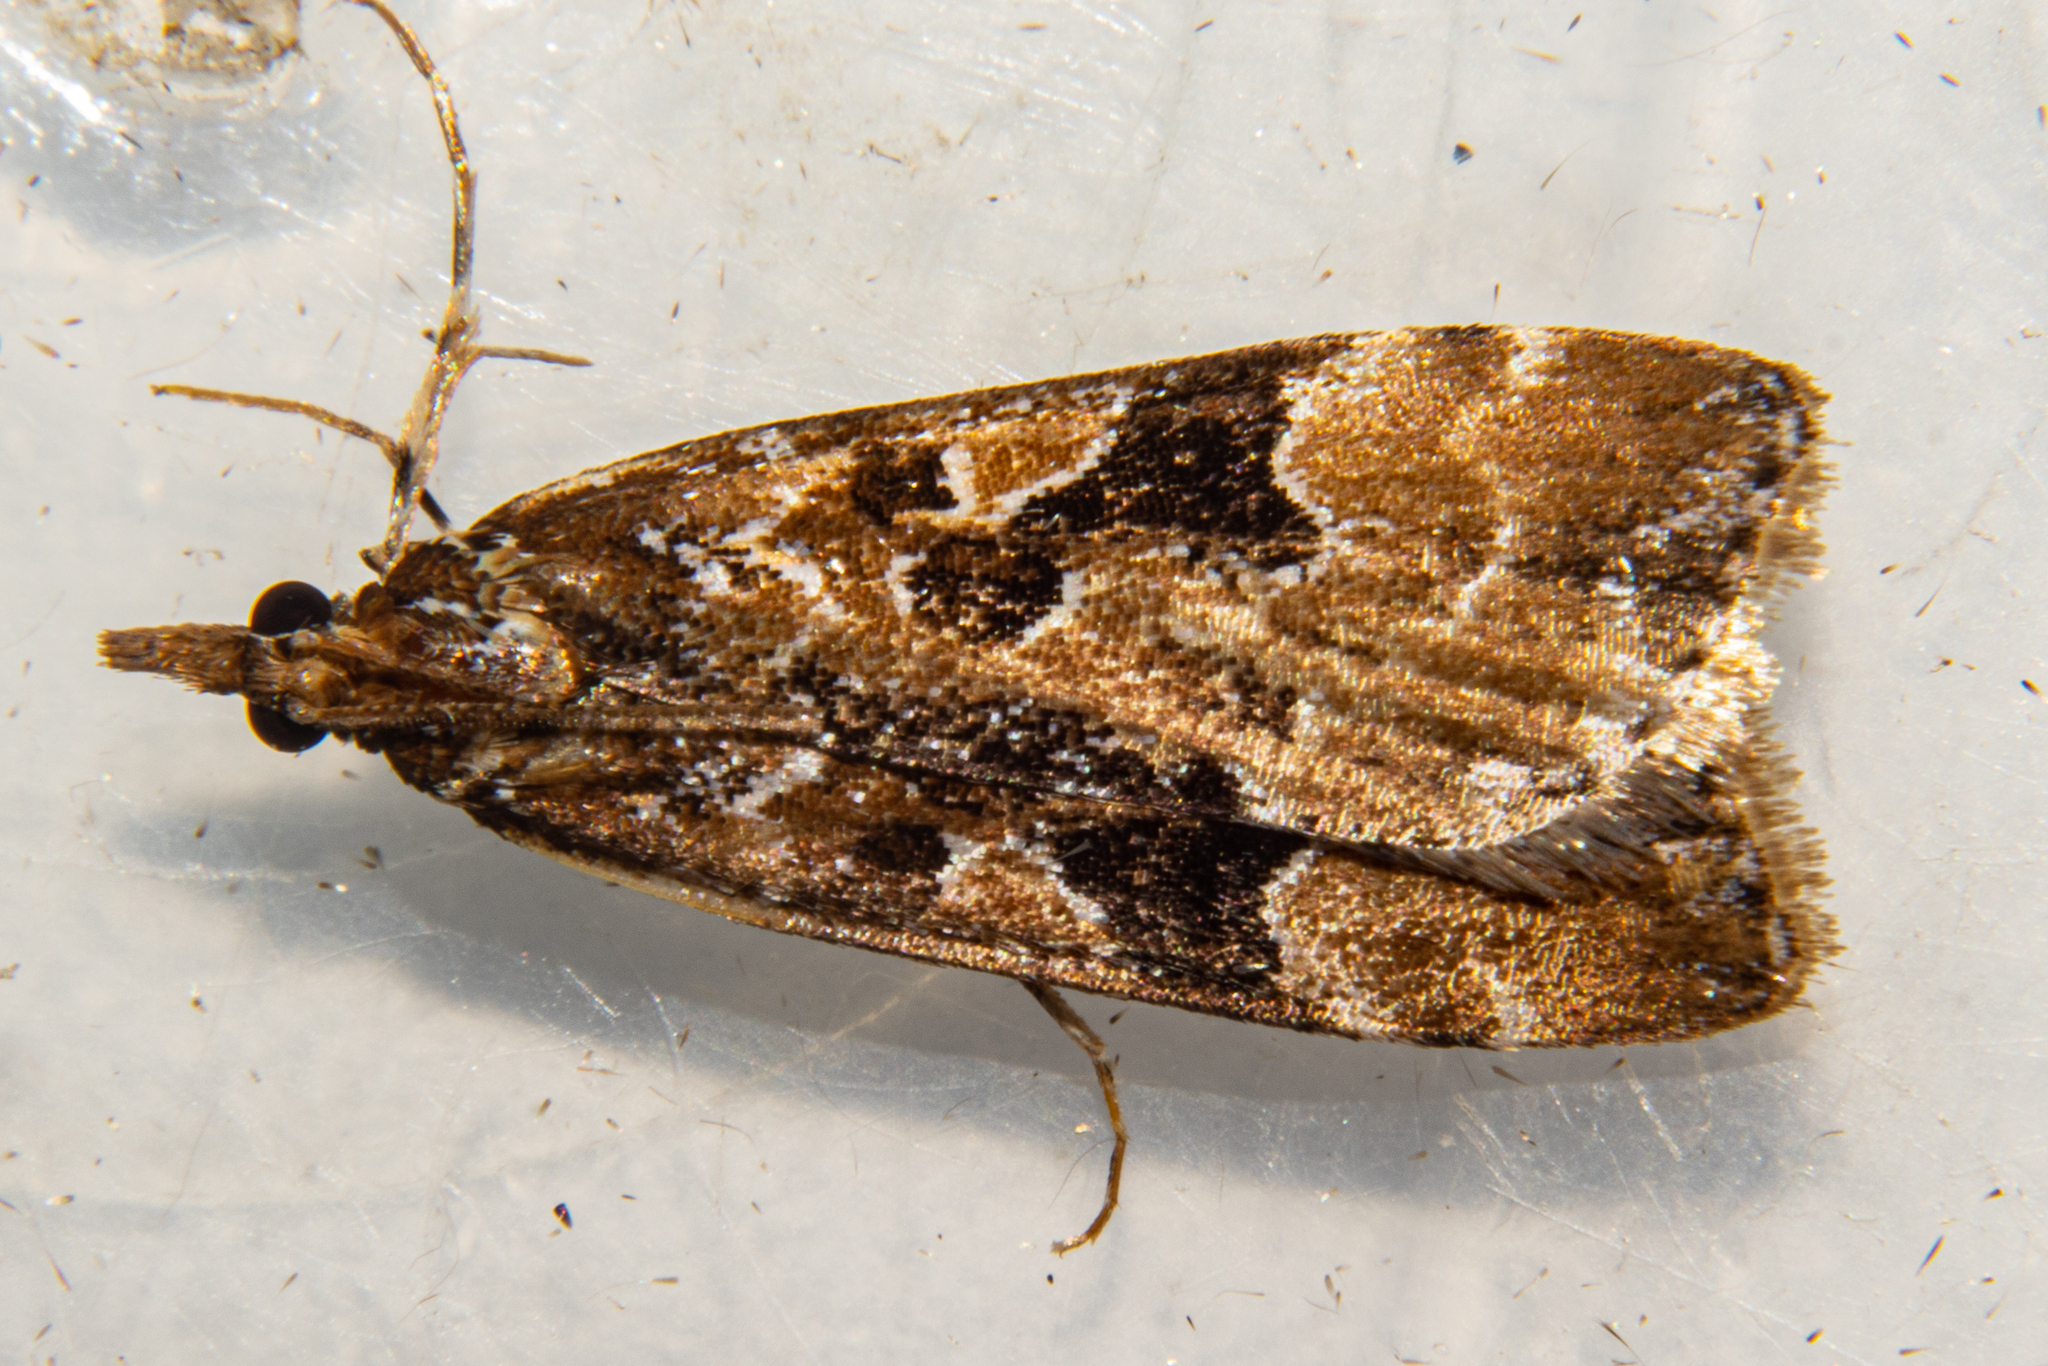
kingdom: Animalia
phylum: Arthropoda
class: Insecta
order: Lepidoptera
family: Crambidae
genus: Scoparia
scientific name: Scoparia ustimacula
